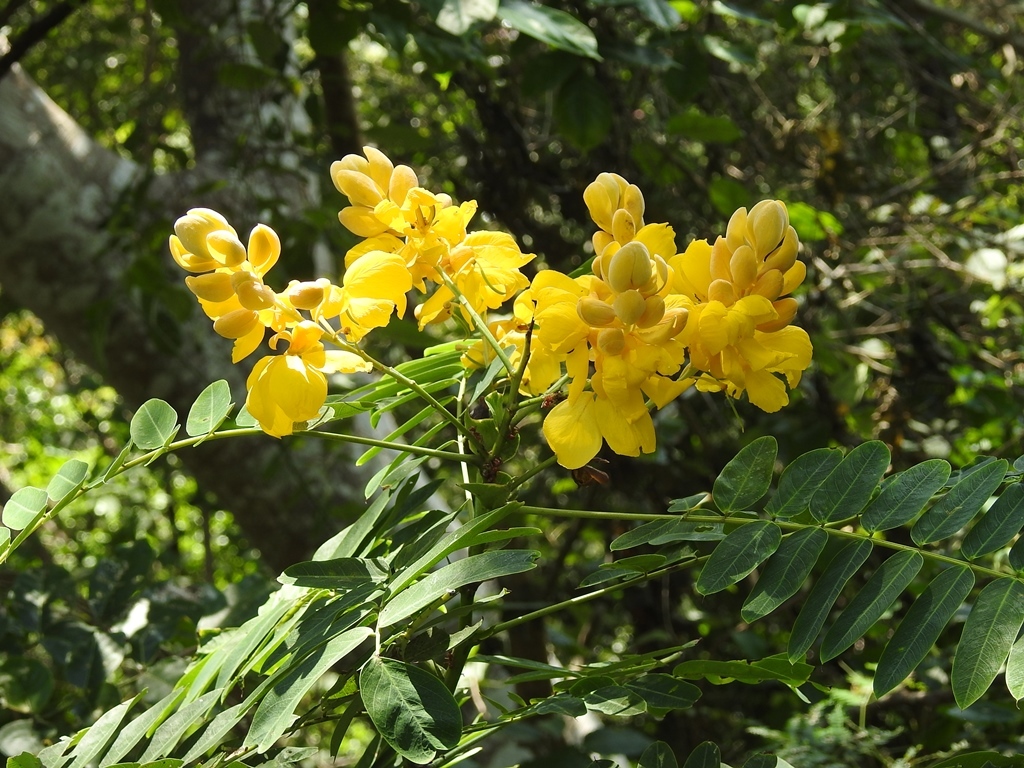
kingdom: Plantae
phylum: Tracheophyta
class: Magnoliopsida
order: Fabales
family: Fabaceae
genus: Senna
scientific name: Senna reticulata
